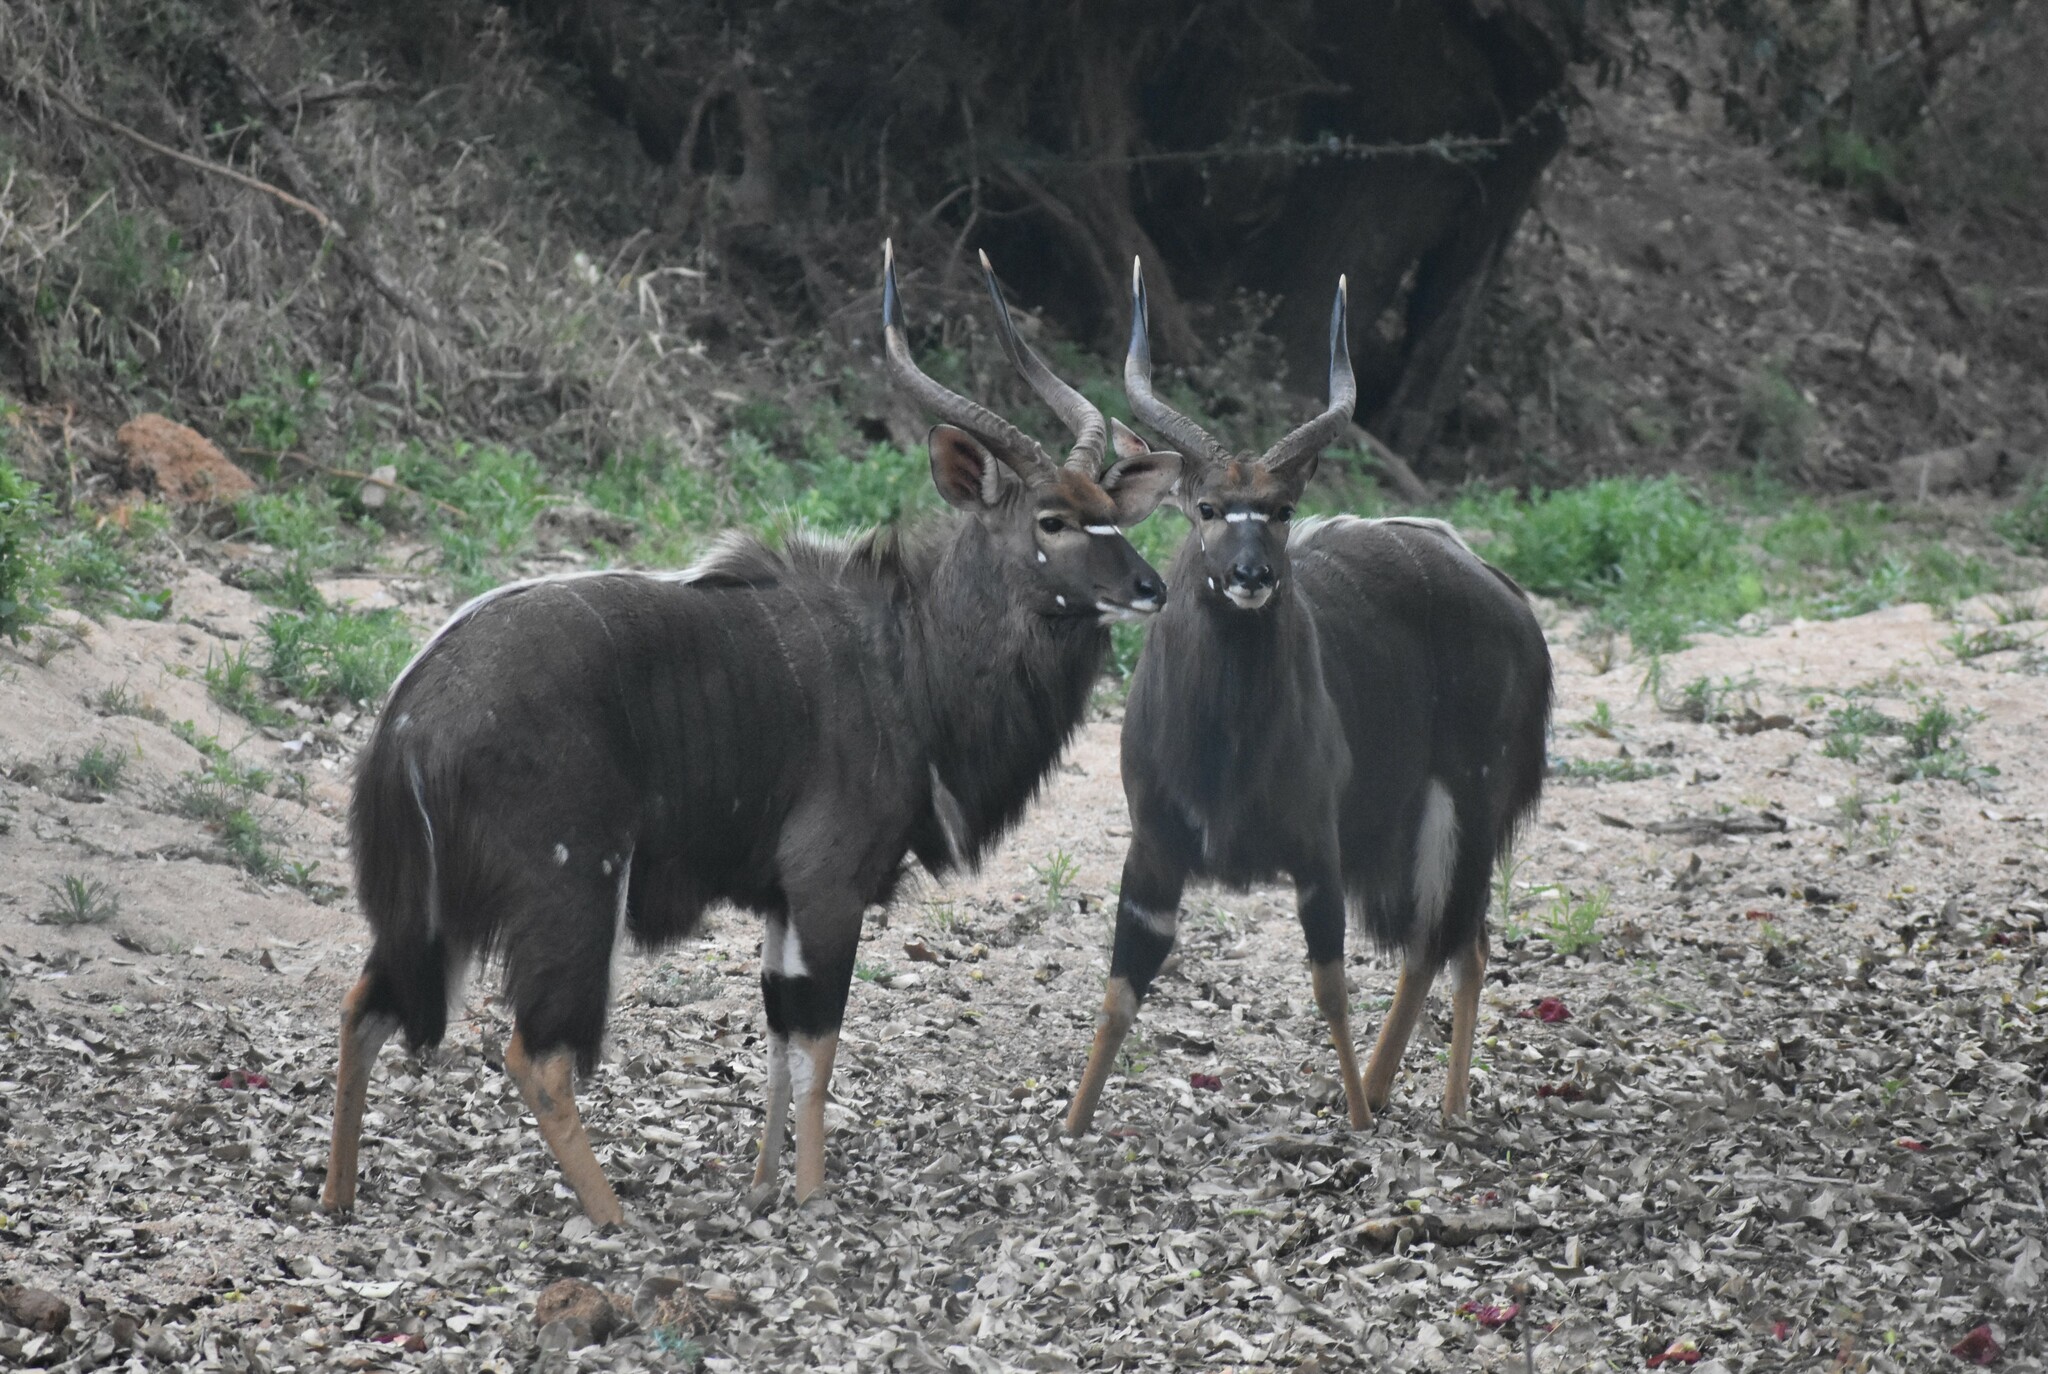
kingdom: Animalia
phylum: Chordata
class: Mammalia
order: Artiodactyla
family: Bovidae
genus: Tragelaphus
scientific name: Tragelaphus angasii
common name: Nyala
